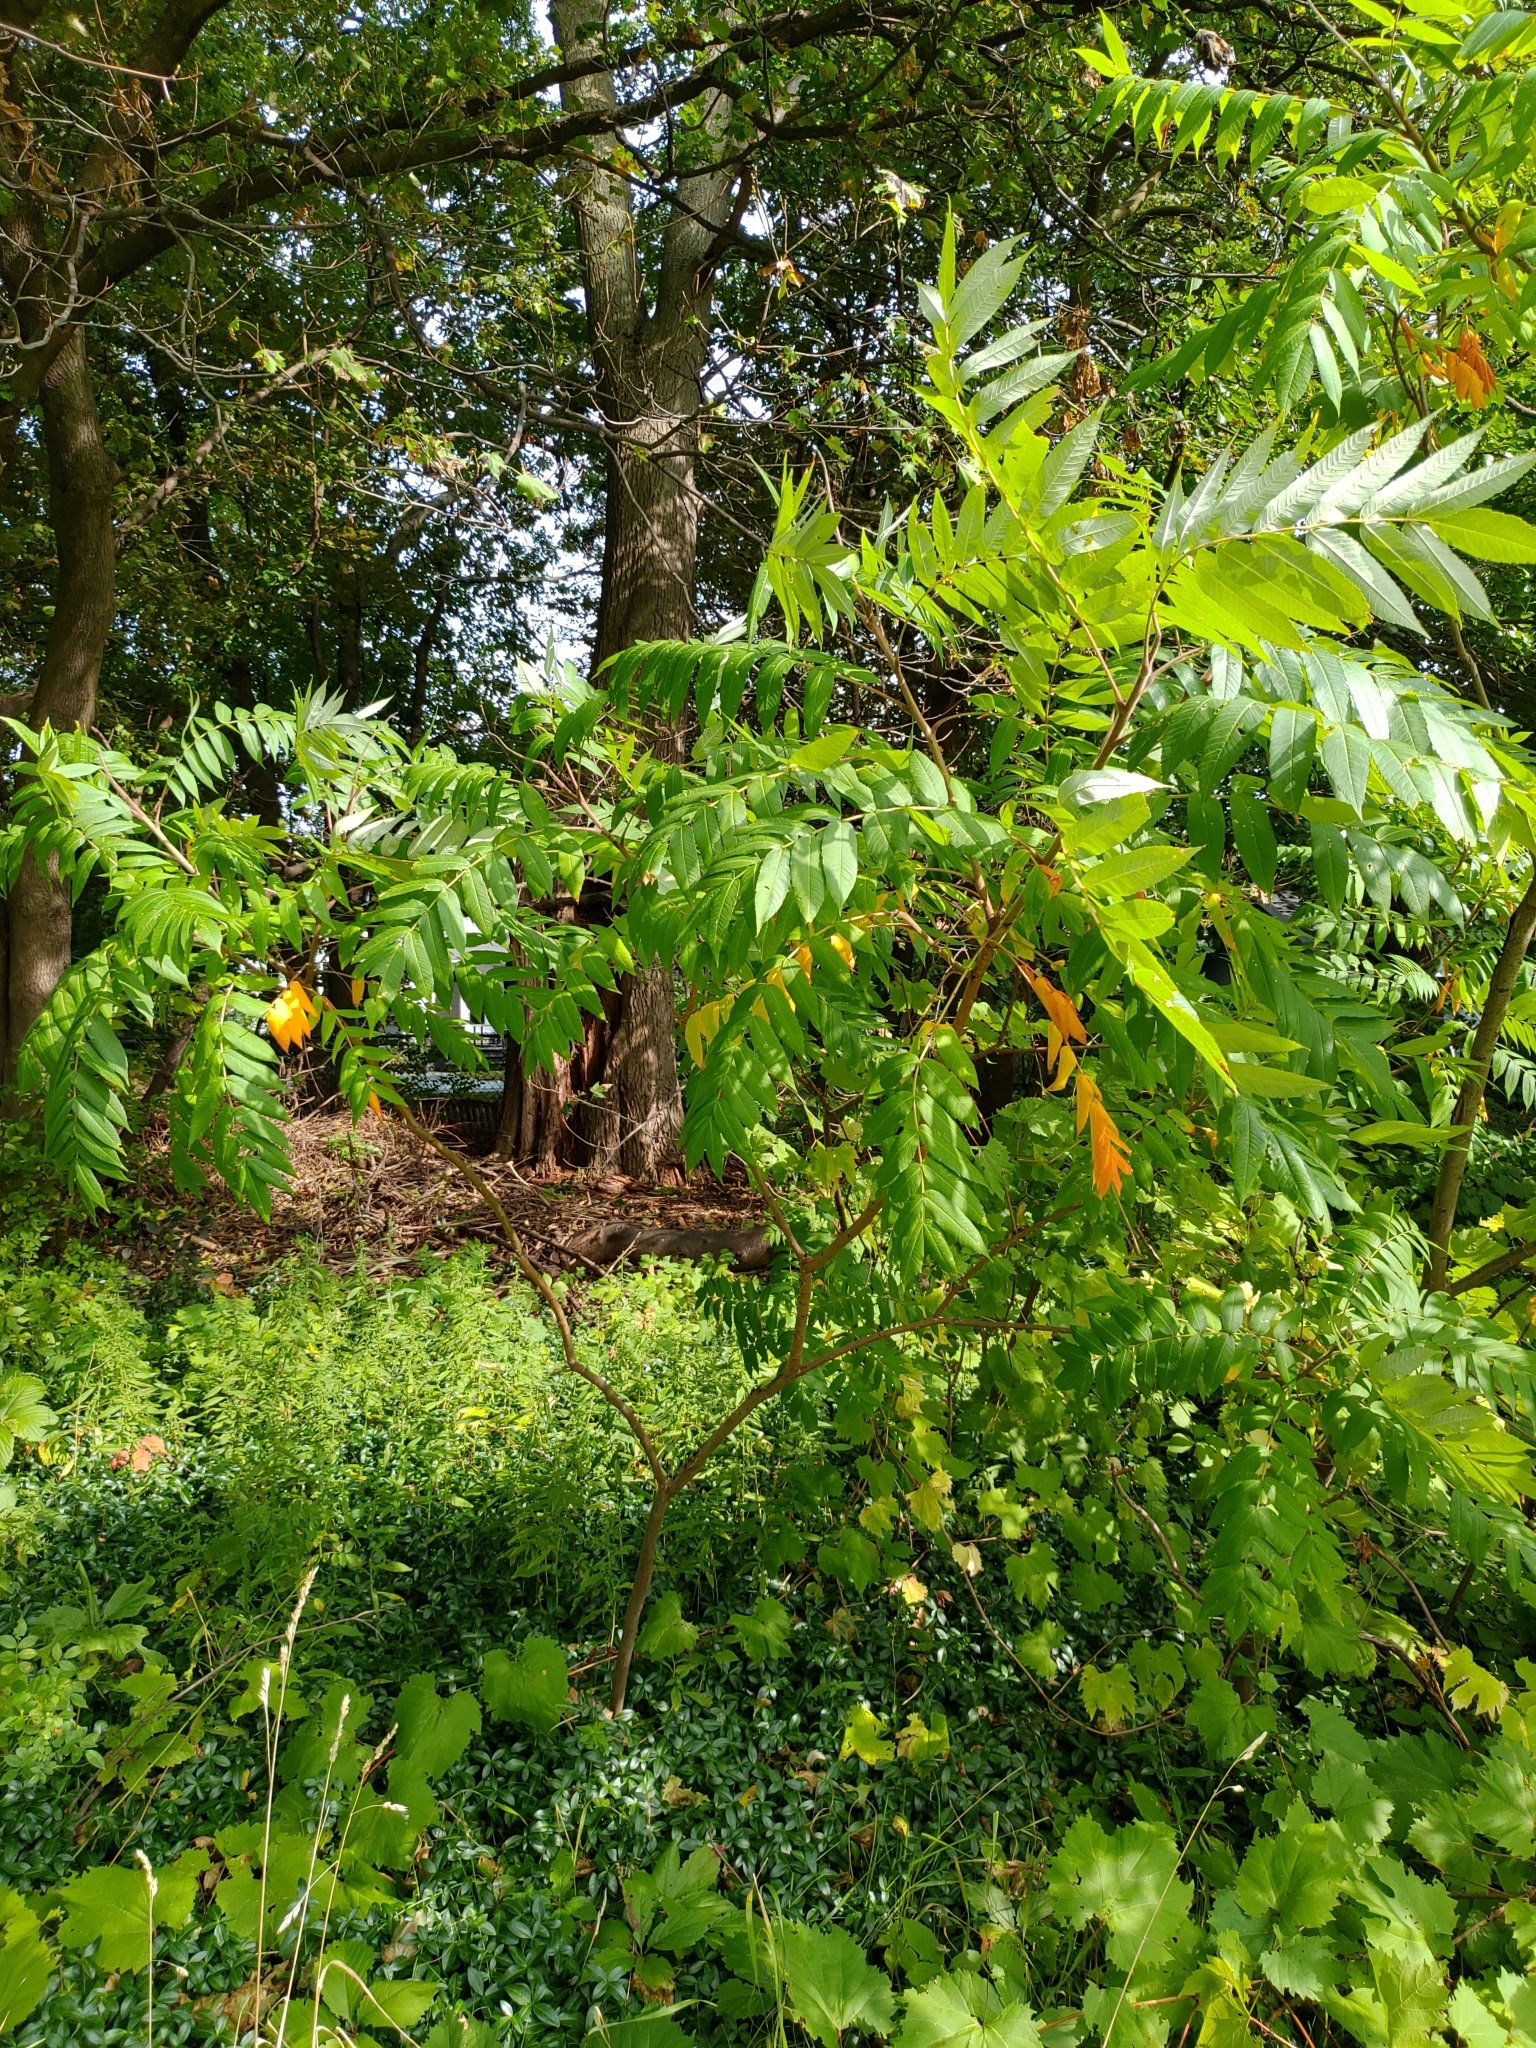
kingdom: Plantae
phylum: Tracheophyta
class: Magnoliopsida
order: Sapindales
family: Anacardiaceae
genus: Rhus
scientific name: Rhus typhina
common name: Staghorn sumac
